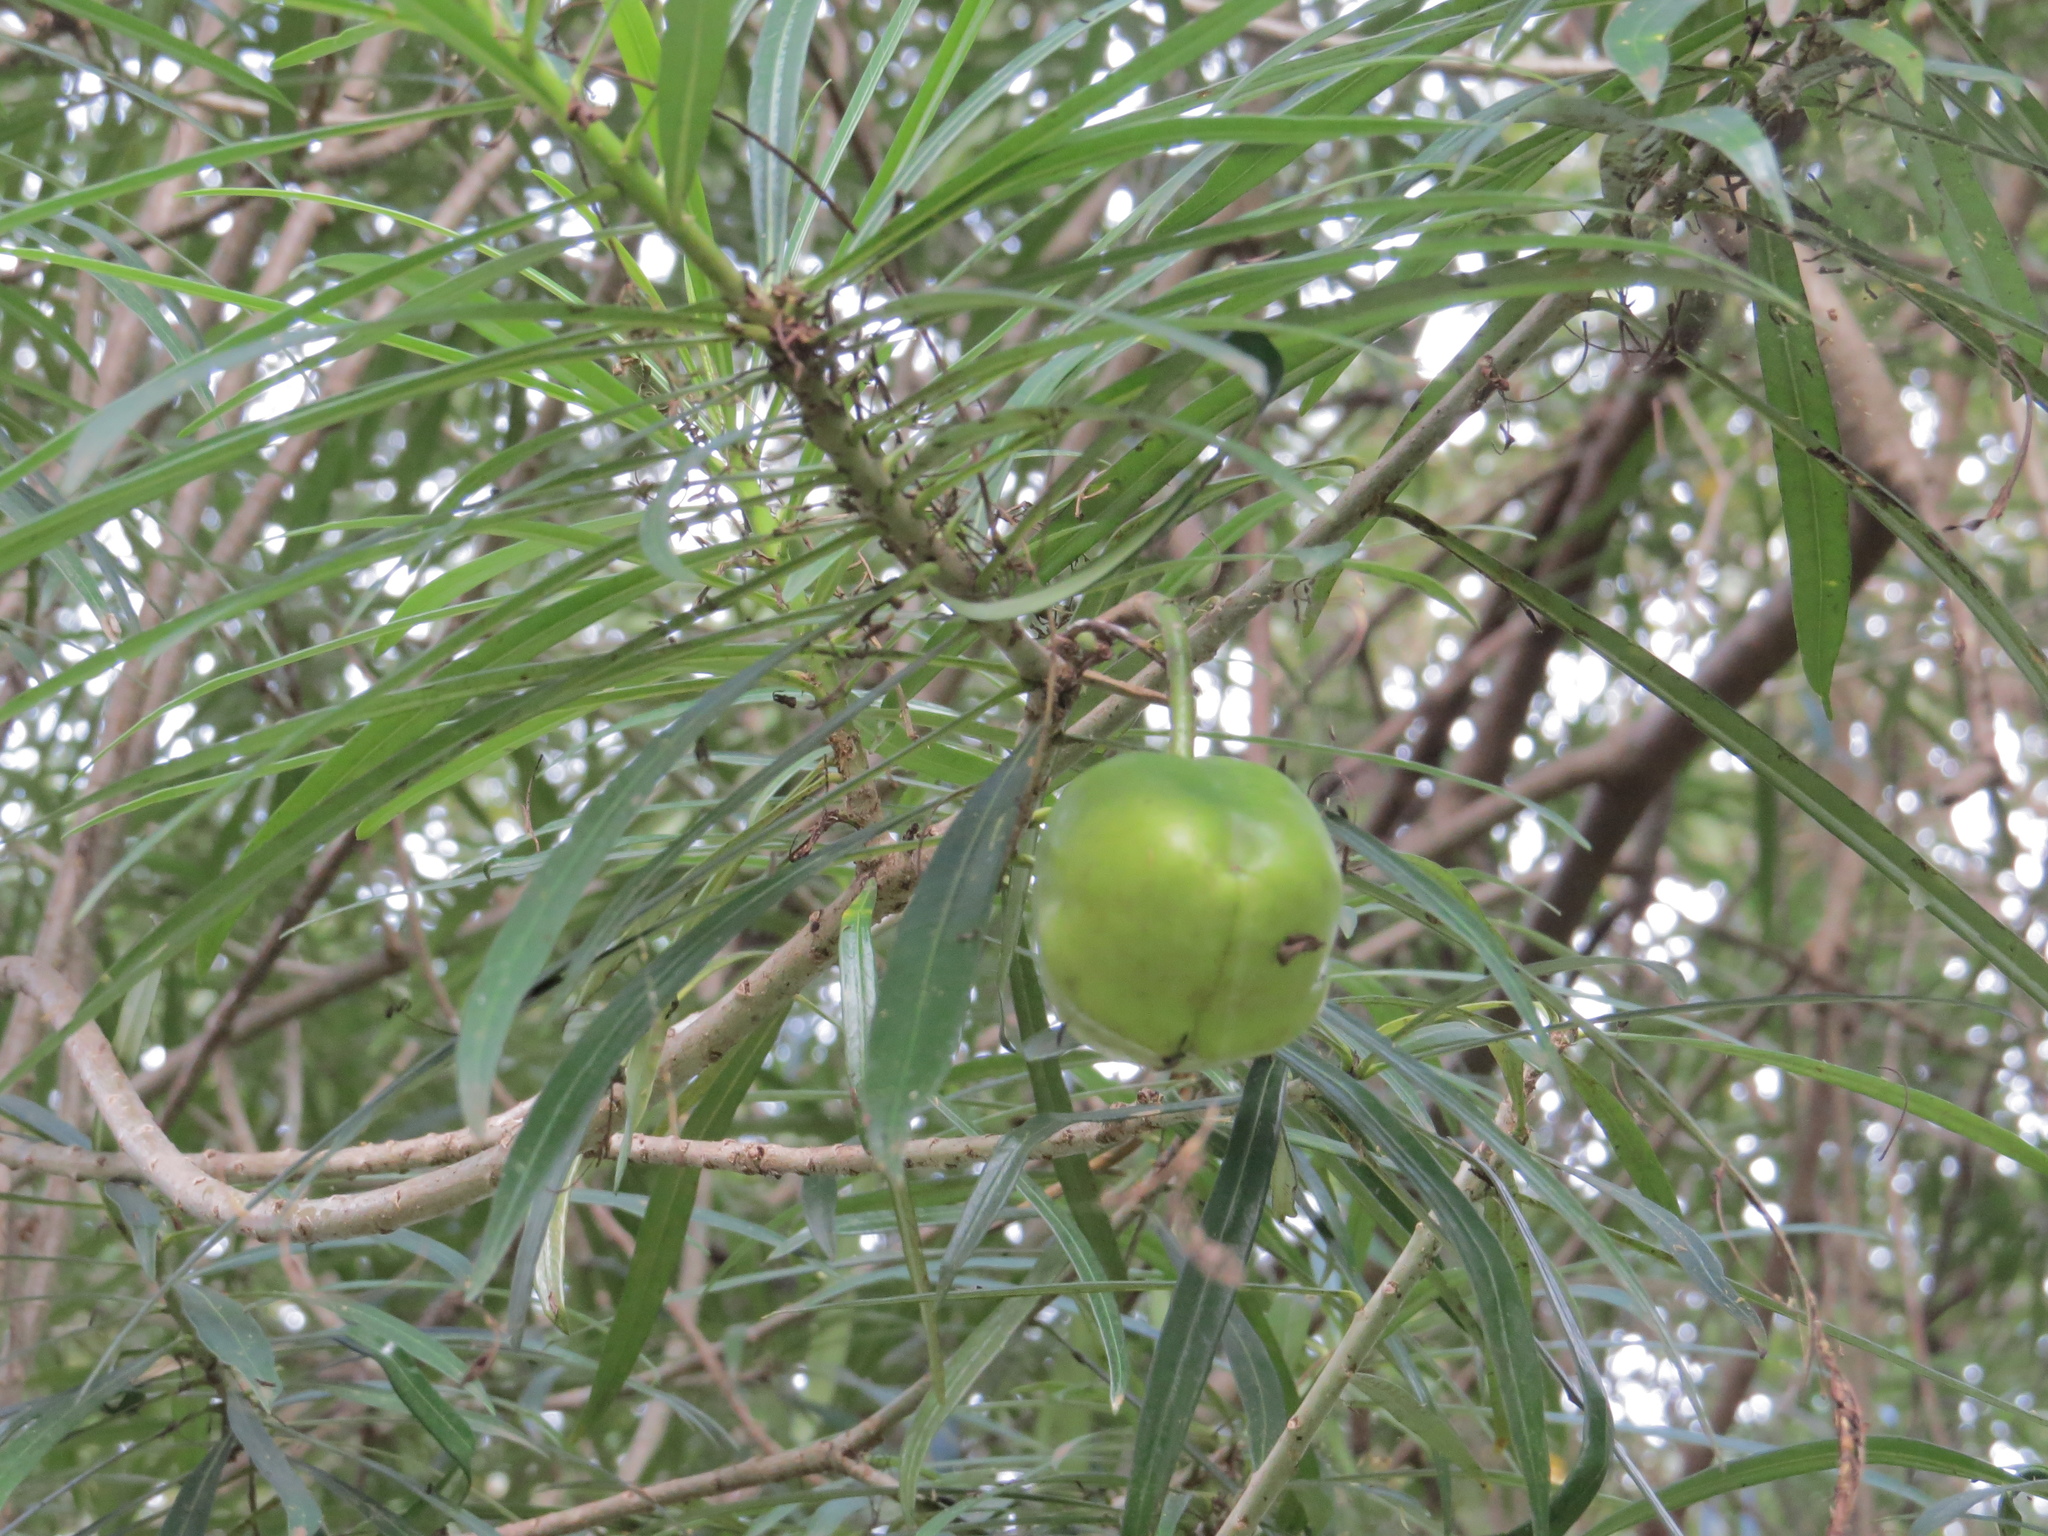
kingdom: Plantae
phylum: Tracheophyta
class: Magnoliopsida
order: Gentianales
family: Apocynaceae
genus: Cascabela
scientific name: Cascabela thevetia
